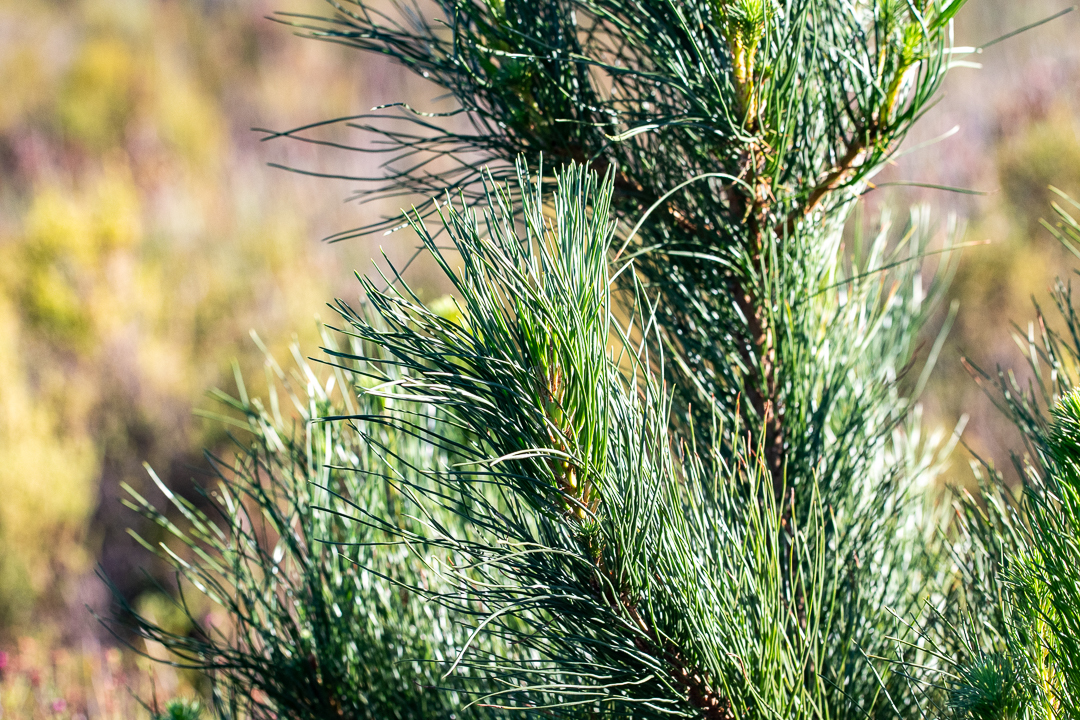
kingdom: Plantae
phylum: Tracheophyta
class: Pinopsida
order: Pinales
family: Pinaceae
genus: Pinus
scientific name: Pinus pinaster
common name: Maritime pine
